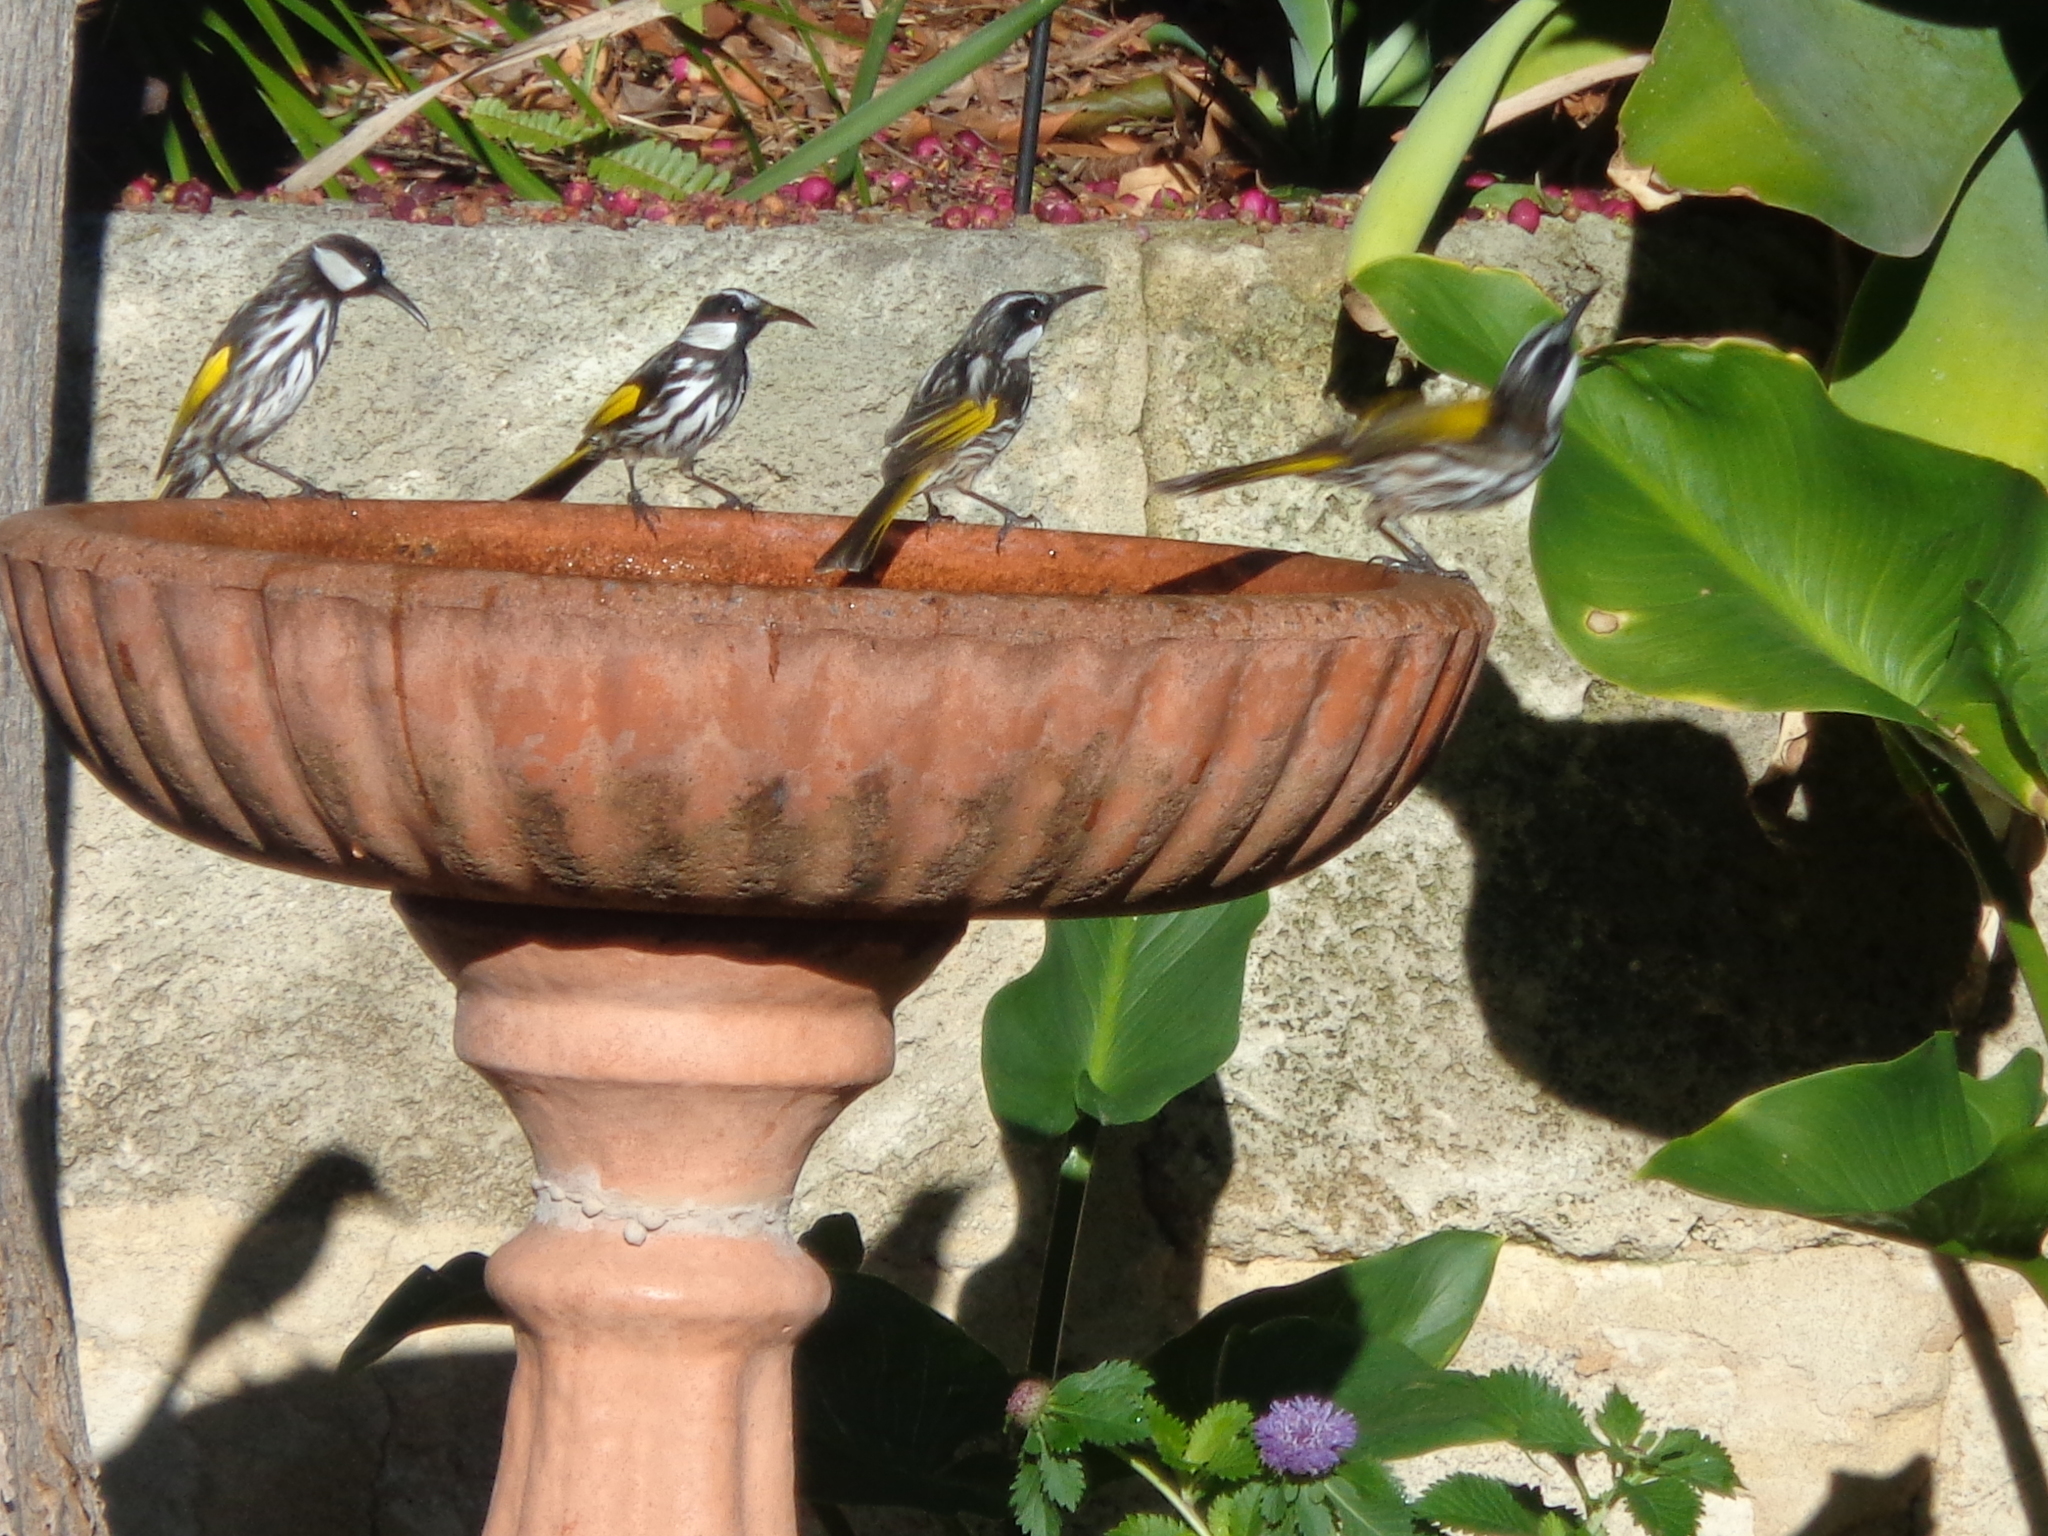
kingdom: Animalia
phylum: Chordata
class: Aves
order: Passeriformes
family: Meliphagidae
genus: Phylidonyris
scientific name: Phylidonyris niger
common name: White-cheeked honeyeater
